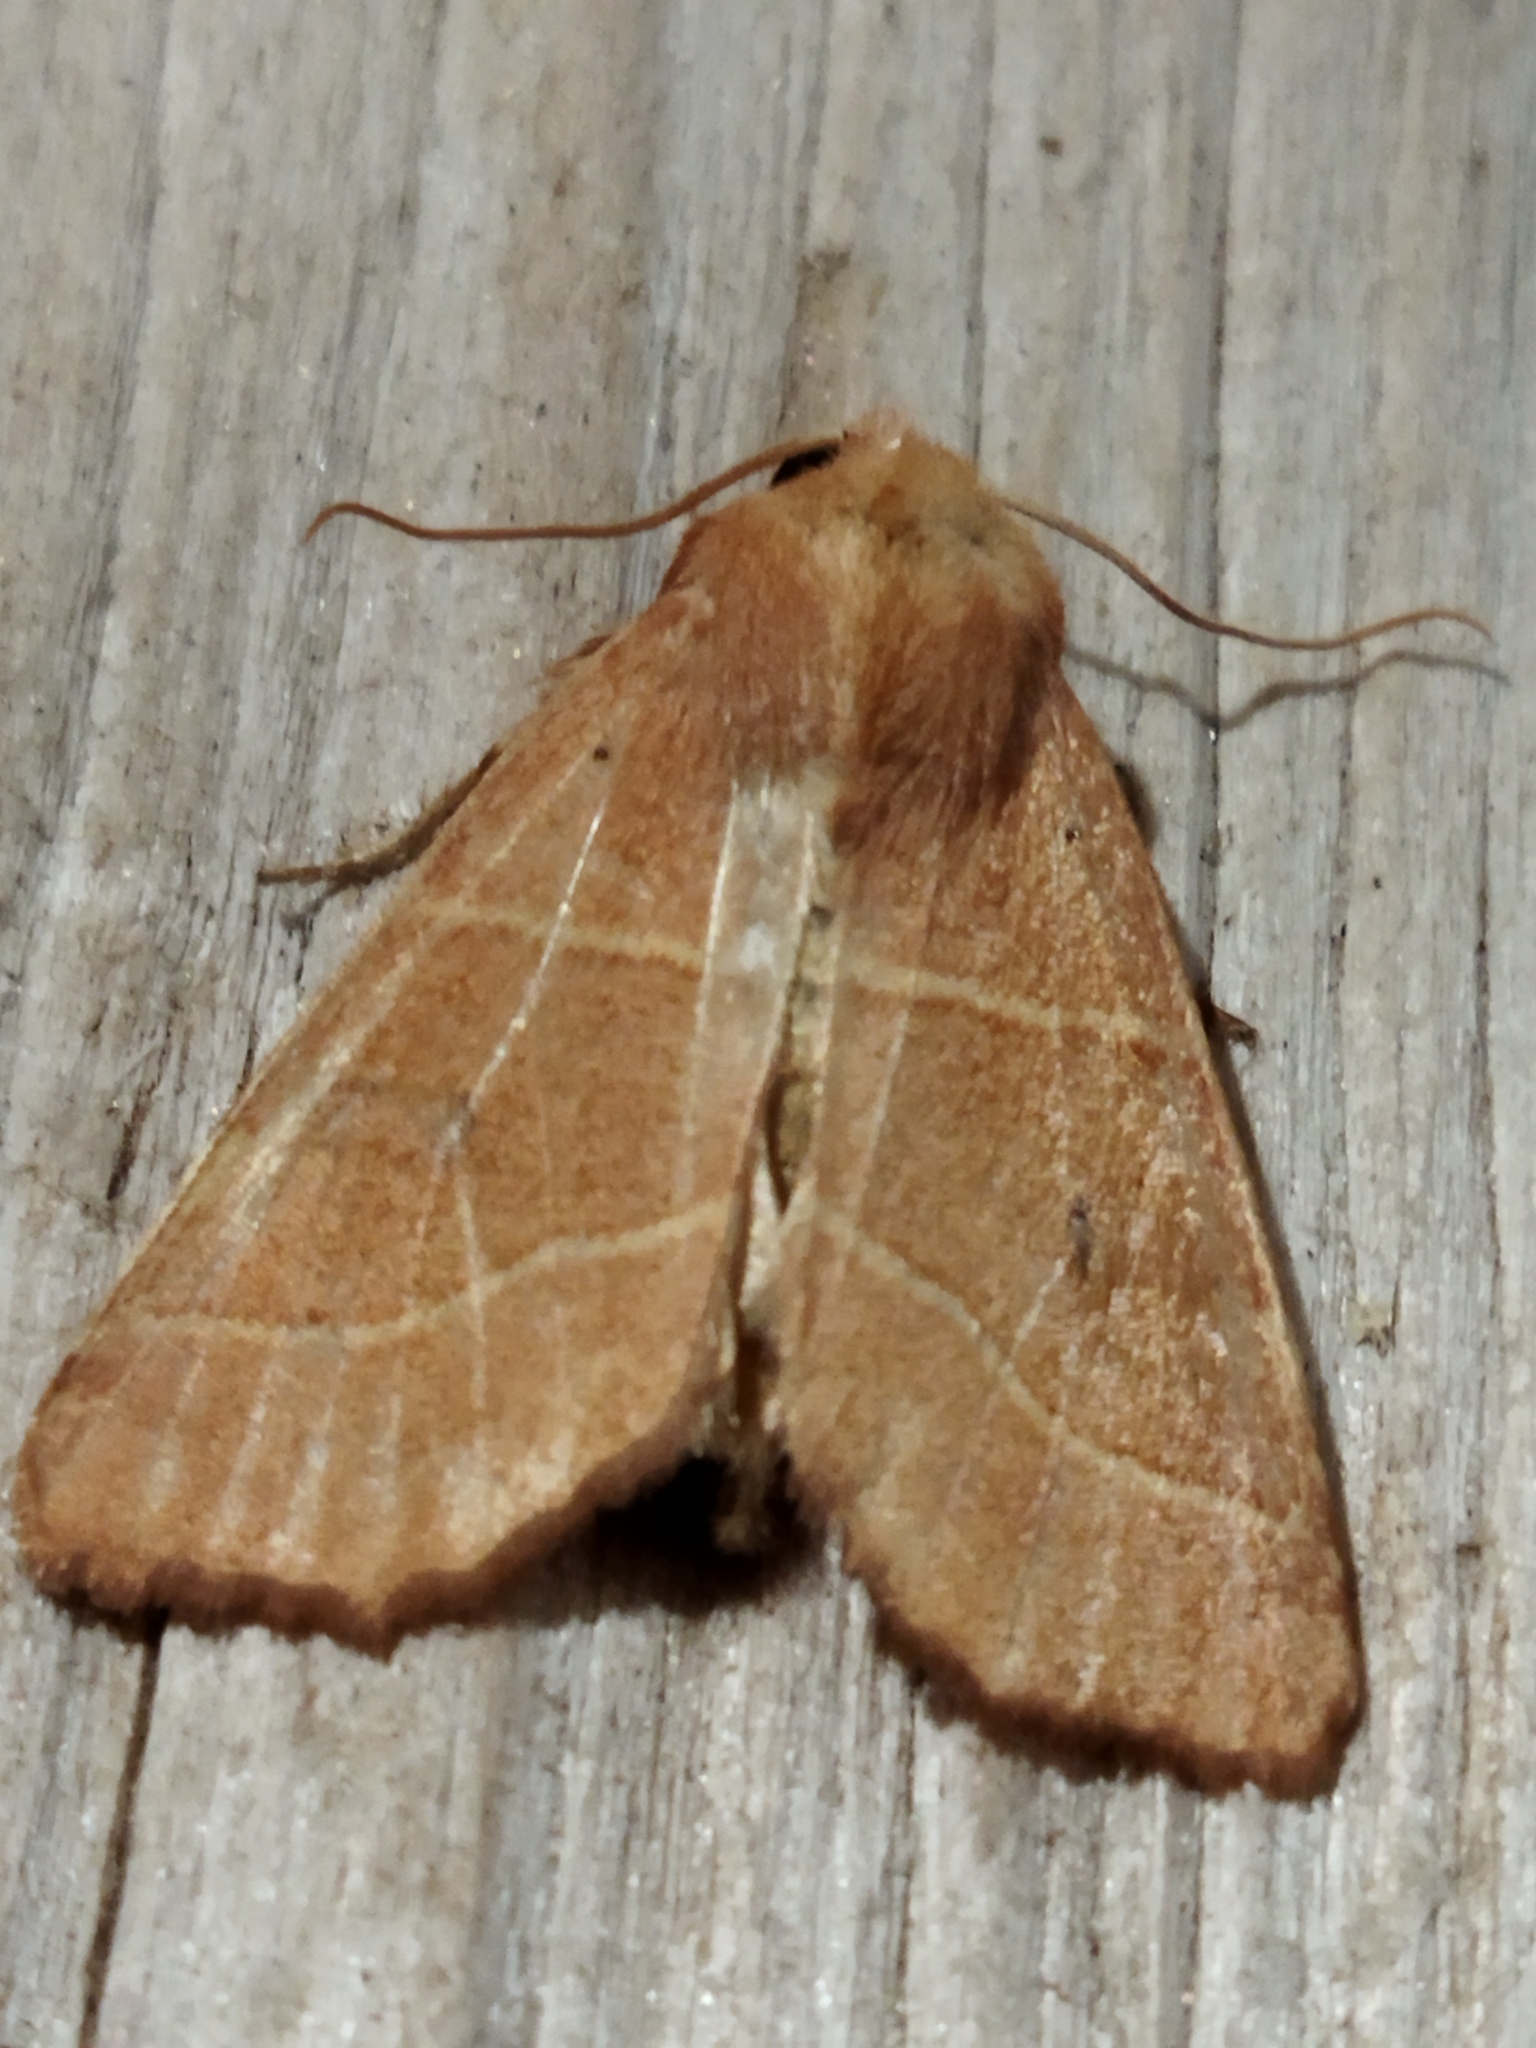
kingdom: Animalia
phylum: Arthropoda
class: Insecta
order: Lepidoptera
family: Noctuidae
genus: Atethmia
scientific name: Atethmia centrago
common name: Centre-barred sallow
